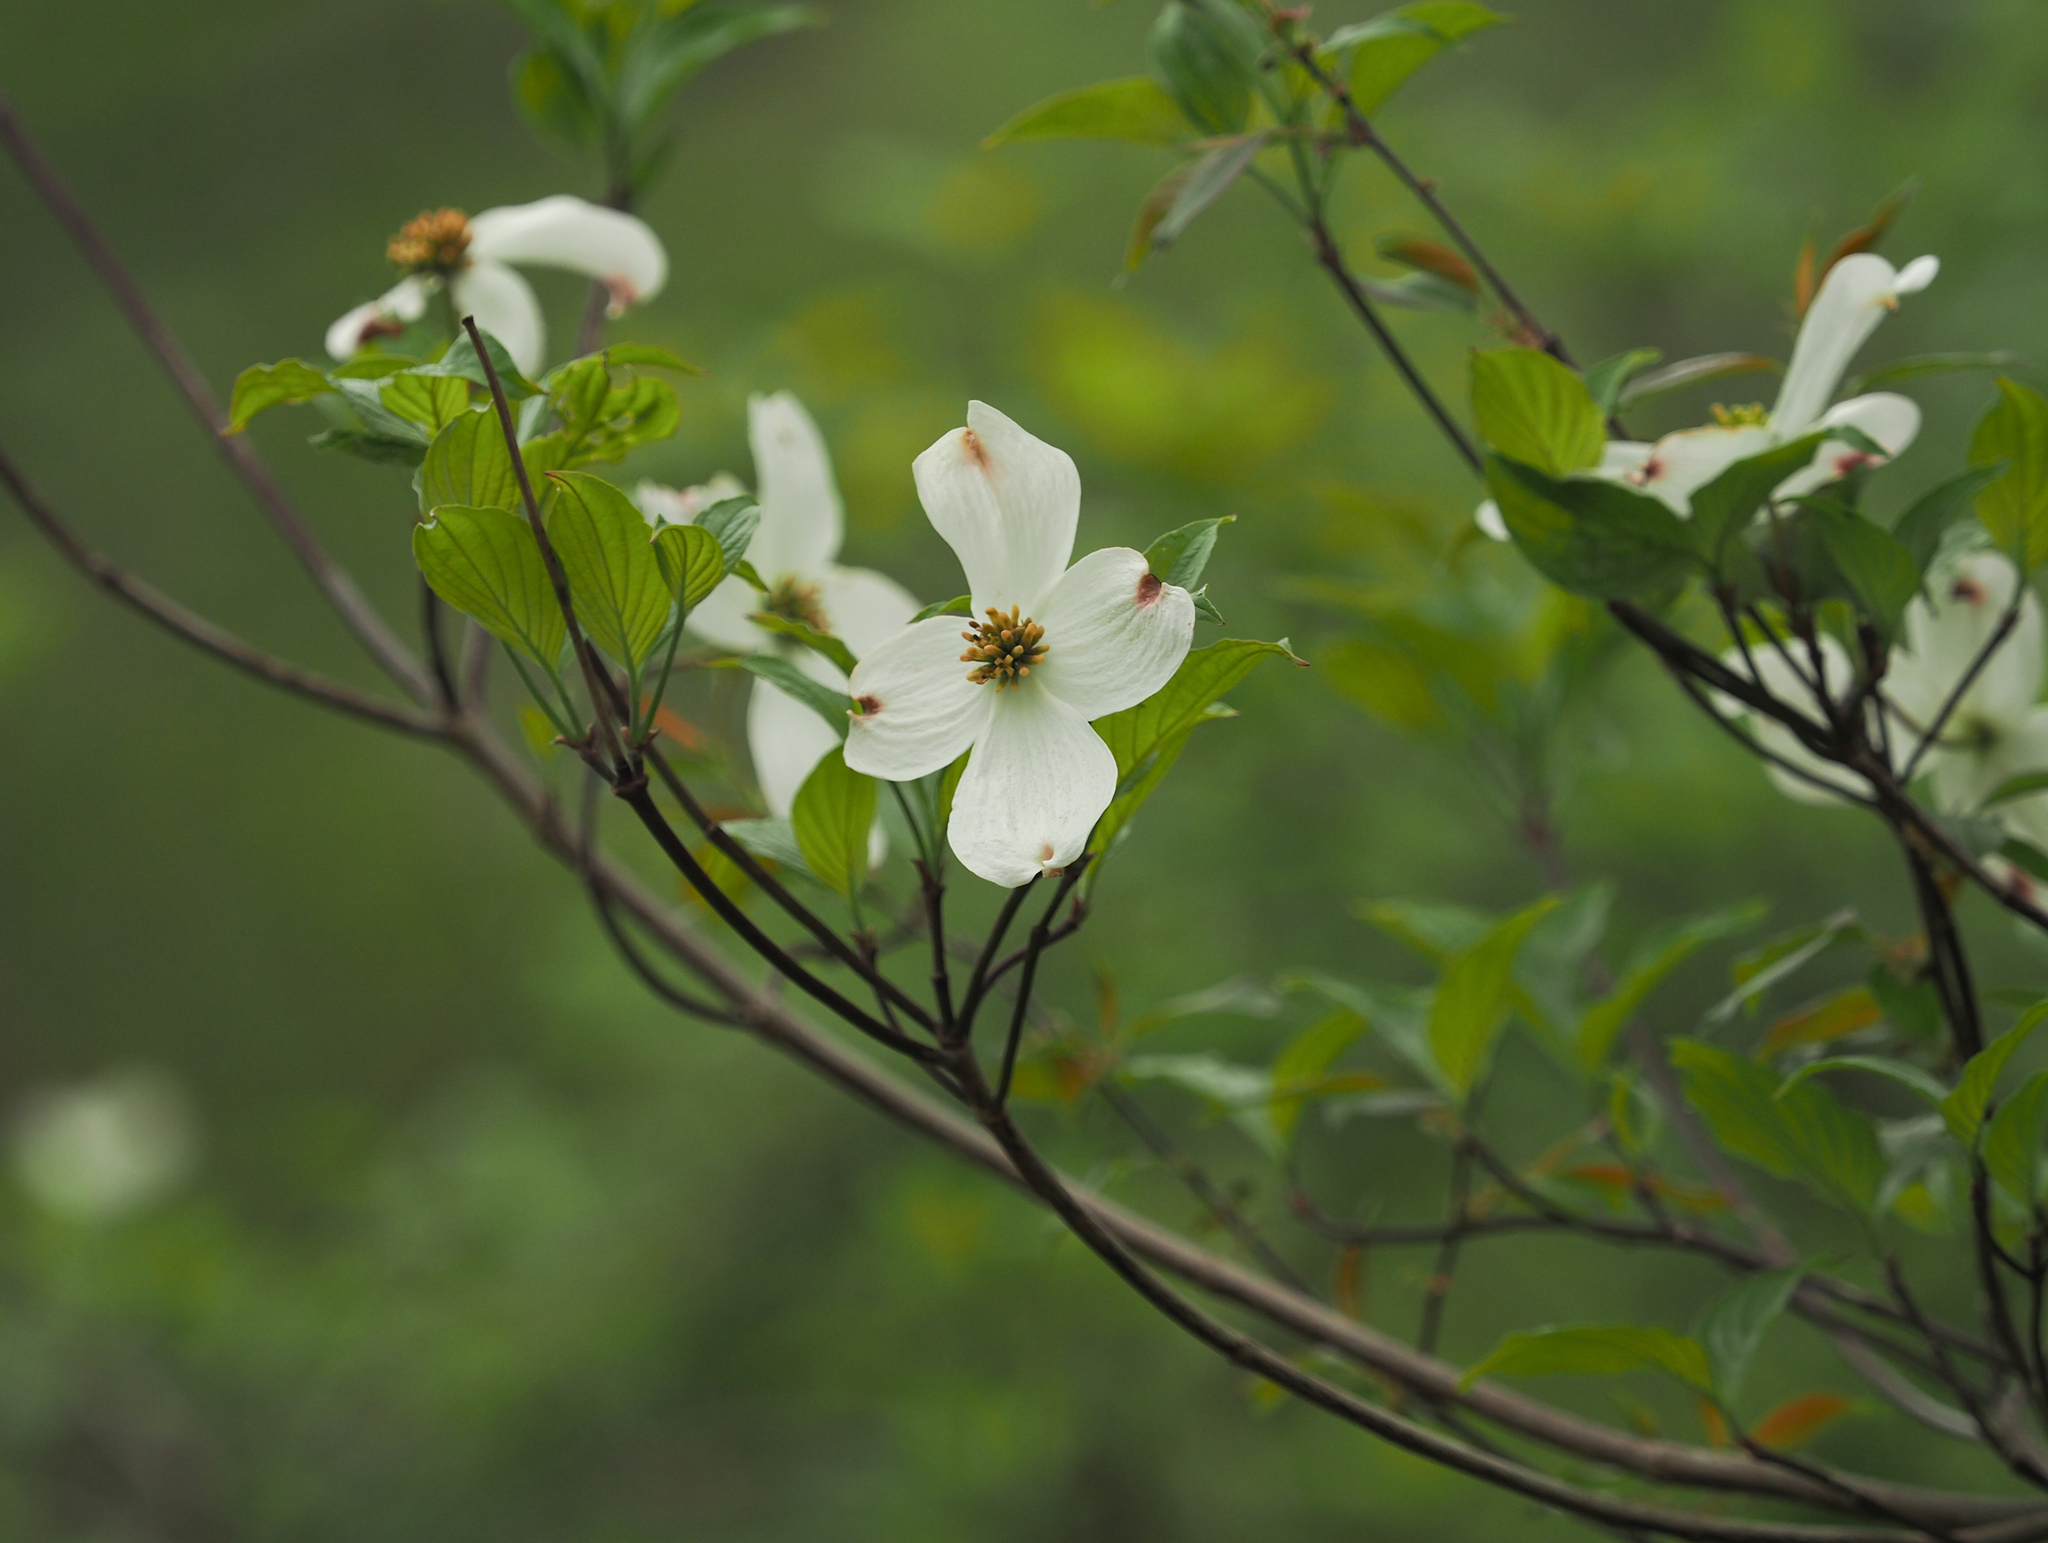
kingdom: Plantae
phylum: Tracheophyta
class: Magnoliopsida
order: Cornales
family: Cornaceae
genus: Cornus
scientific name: Cornus florida
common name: Flowering dogwood
